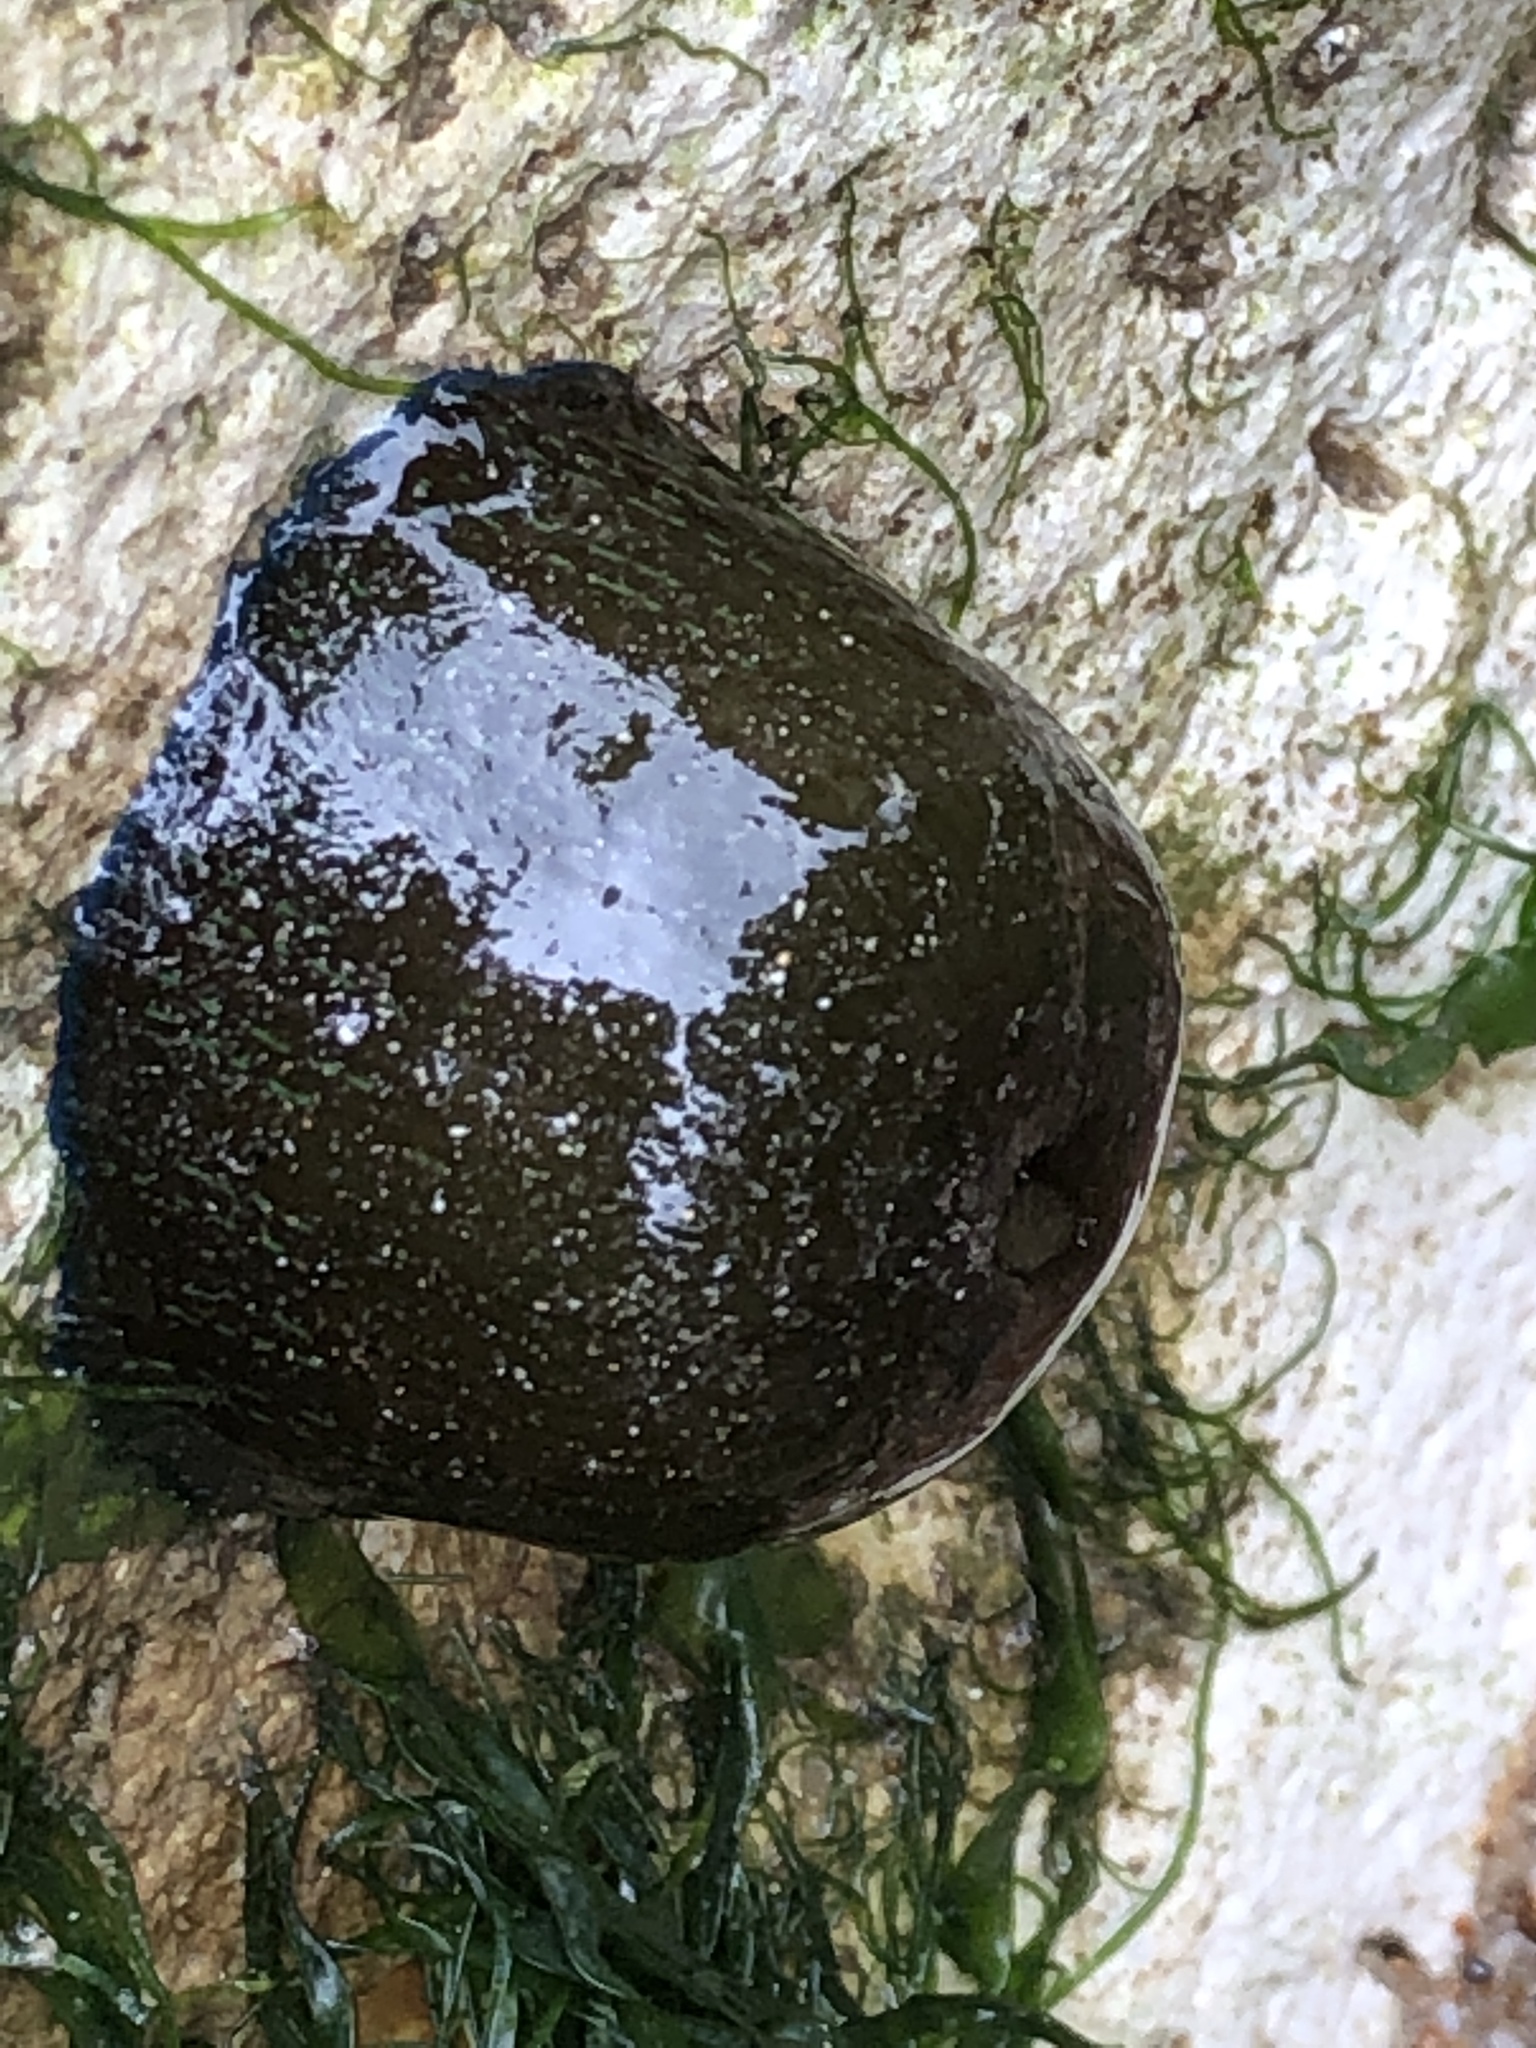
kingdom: Animalia
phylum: Cnidaria
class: Anthozoa
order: Actiniaria
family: Actiniidae
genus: Actinia
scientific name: Actinia equina
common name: Beadlet anemone
